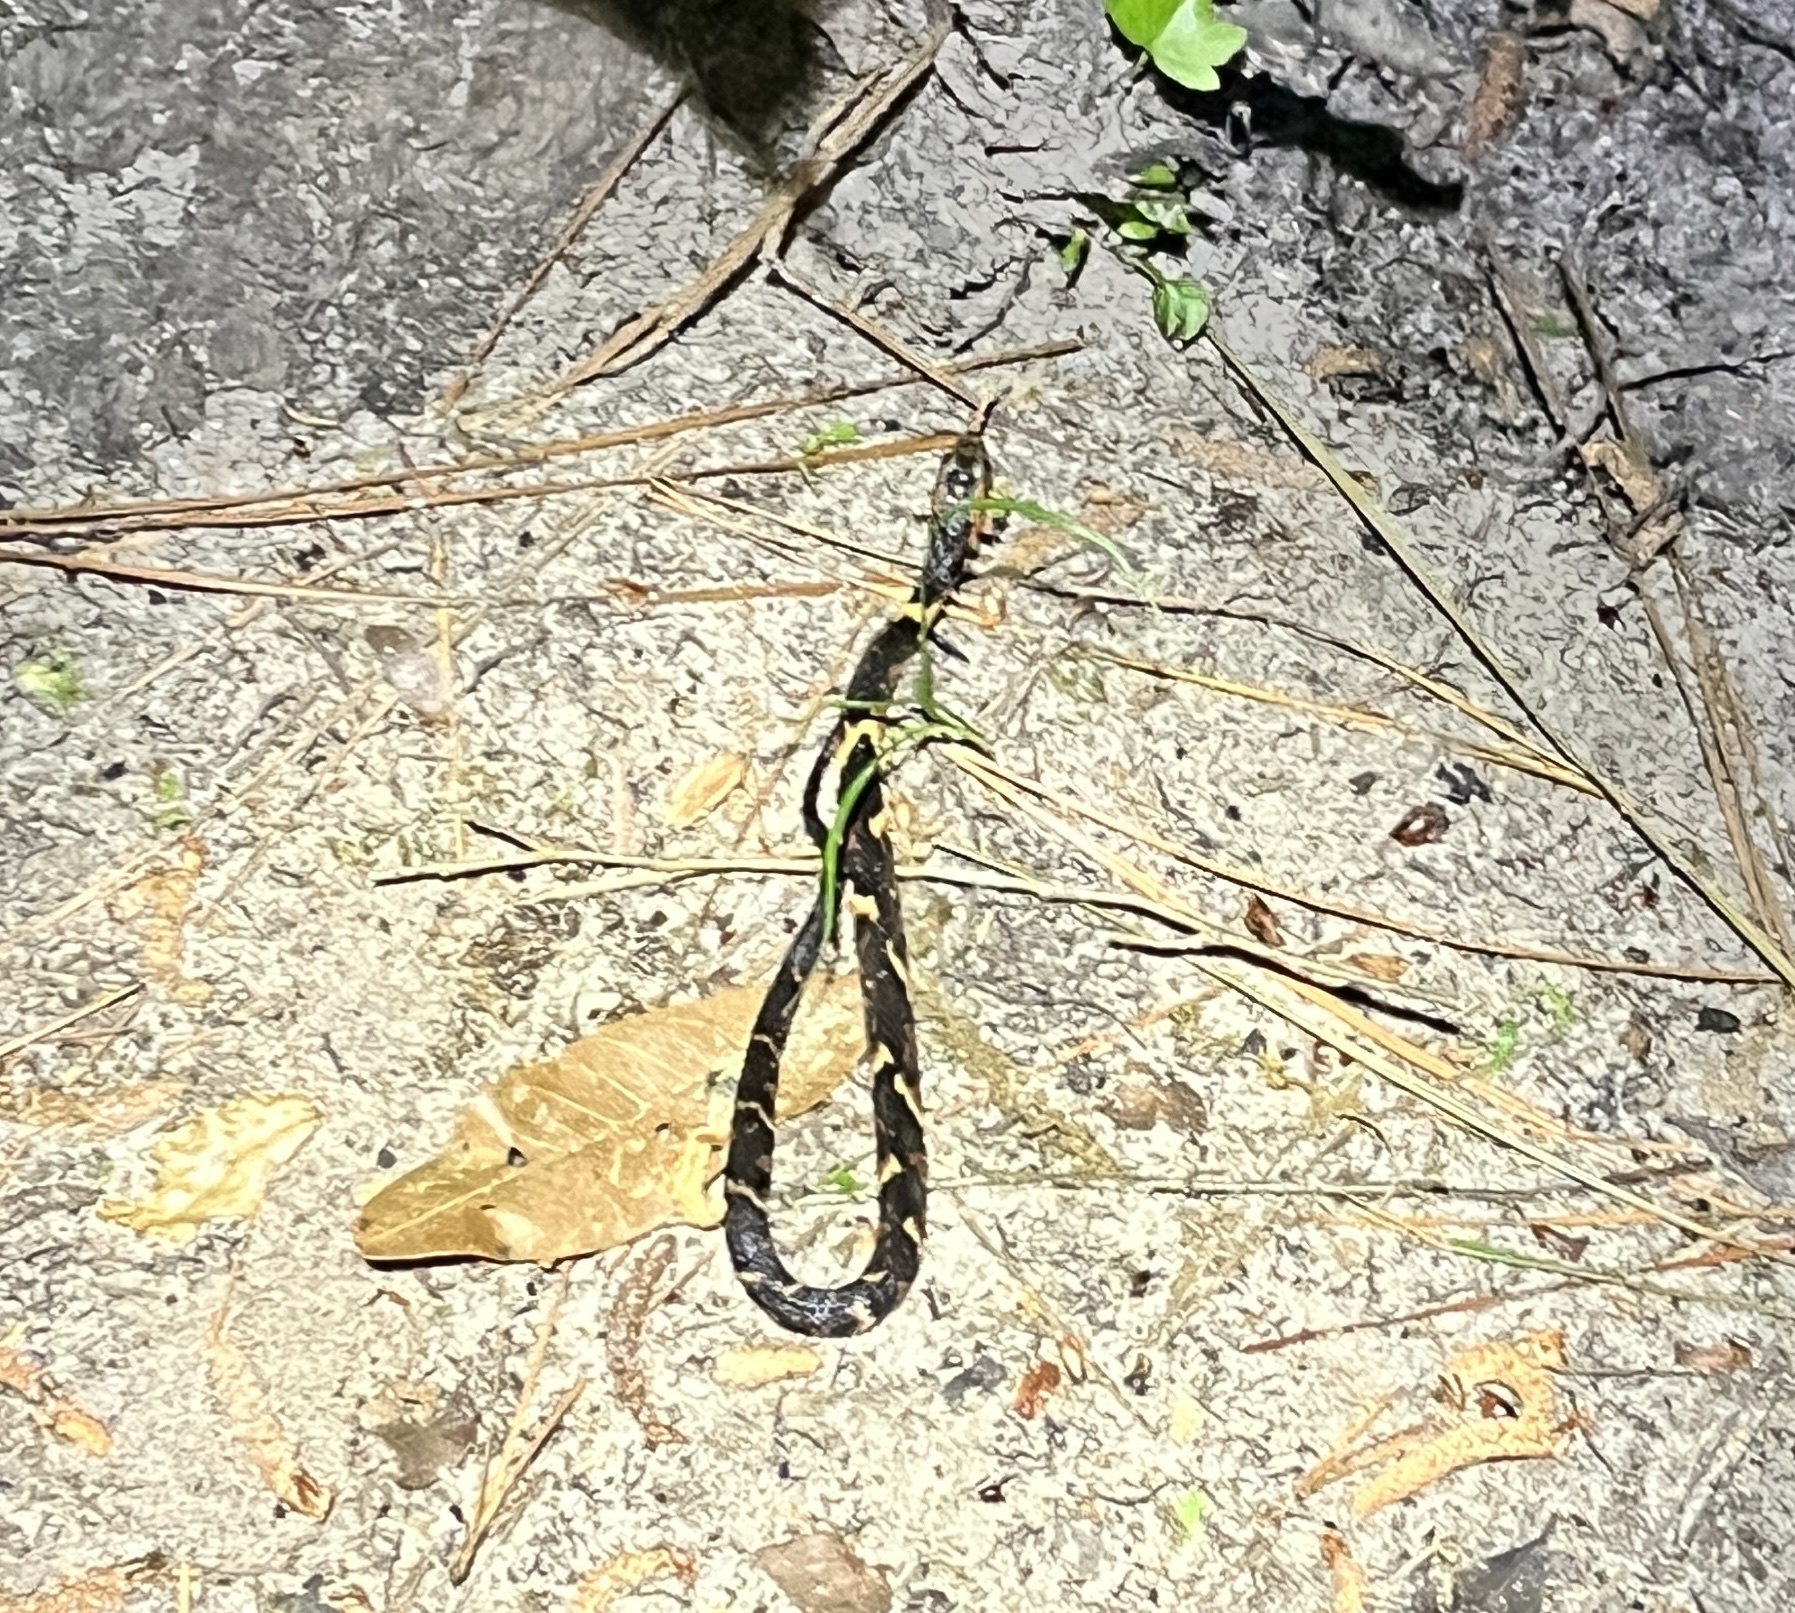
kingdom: Animalia
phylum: Chordata
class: Squamata
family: Colubridae
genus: Nerodia
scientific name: Nerodia fasciata
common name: Southern water snake
